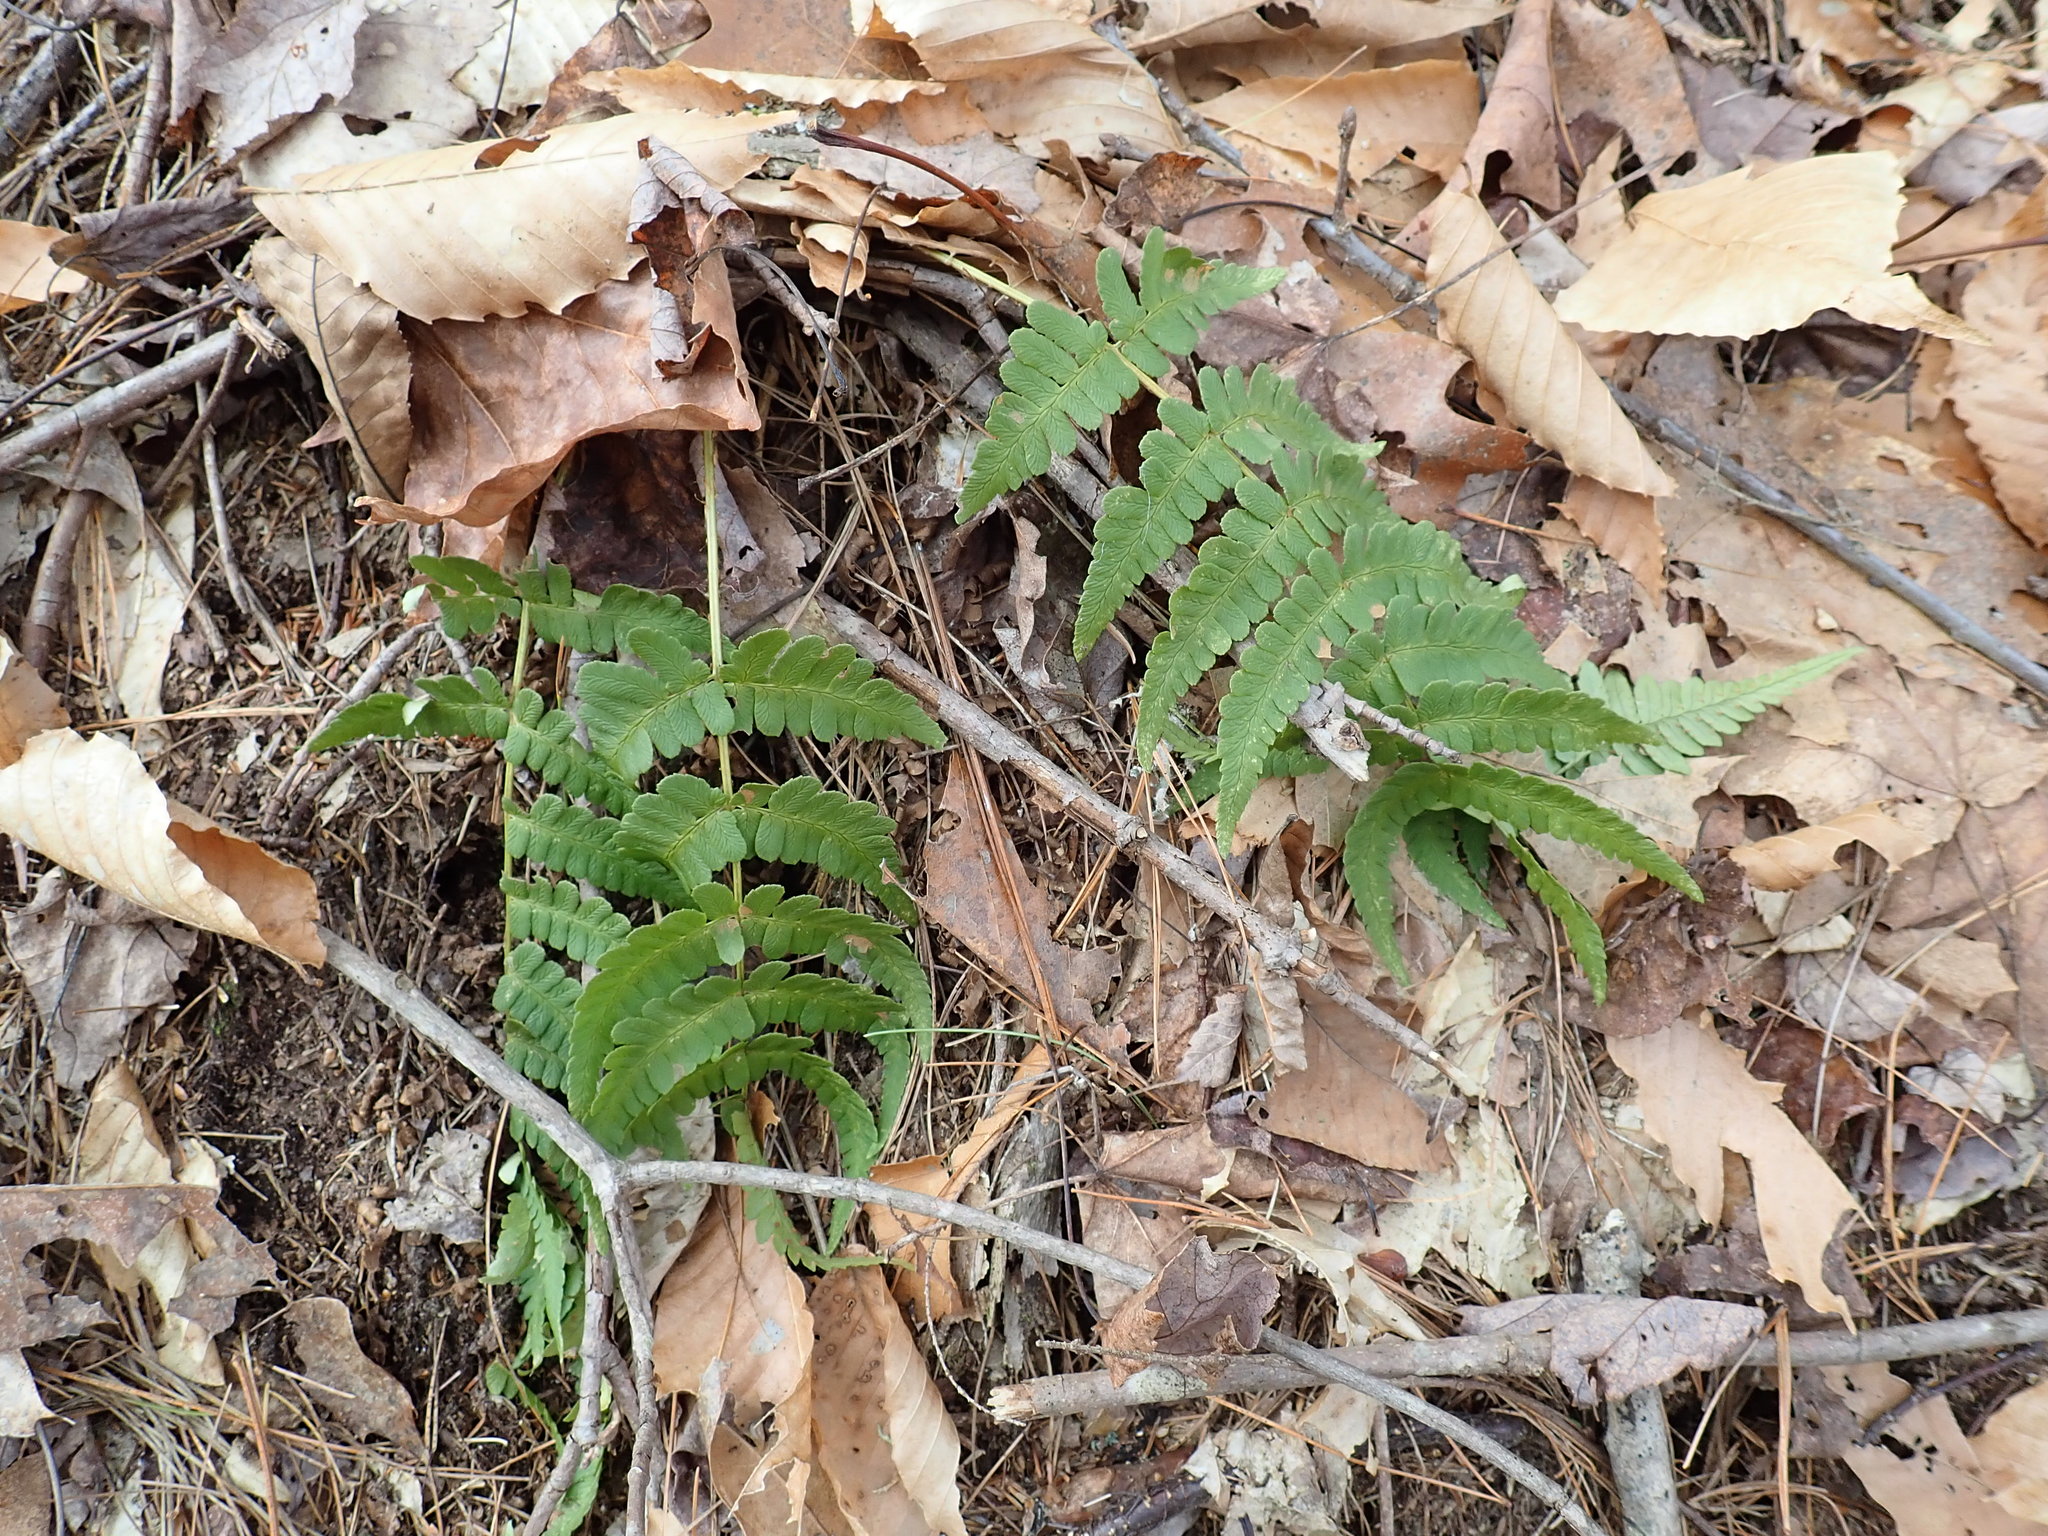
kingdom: Plantae
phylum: Tracheophyta
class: Polypodiopsida
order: Polypodiales
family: Dryopteridaceae
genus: Dryopteris
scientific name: Dryopteris marginalis
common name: Marginal wood fern
